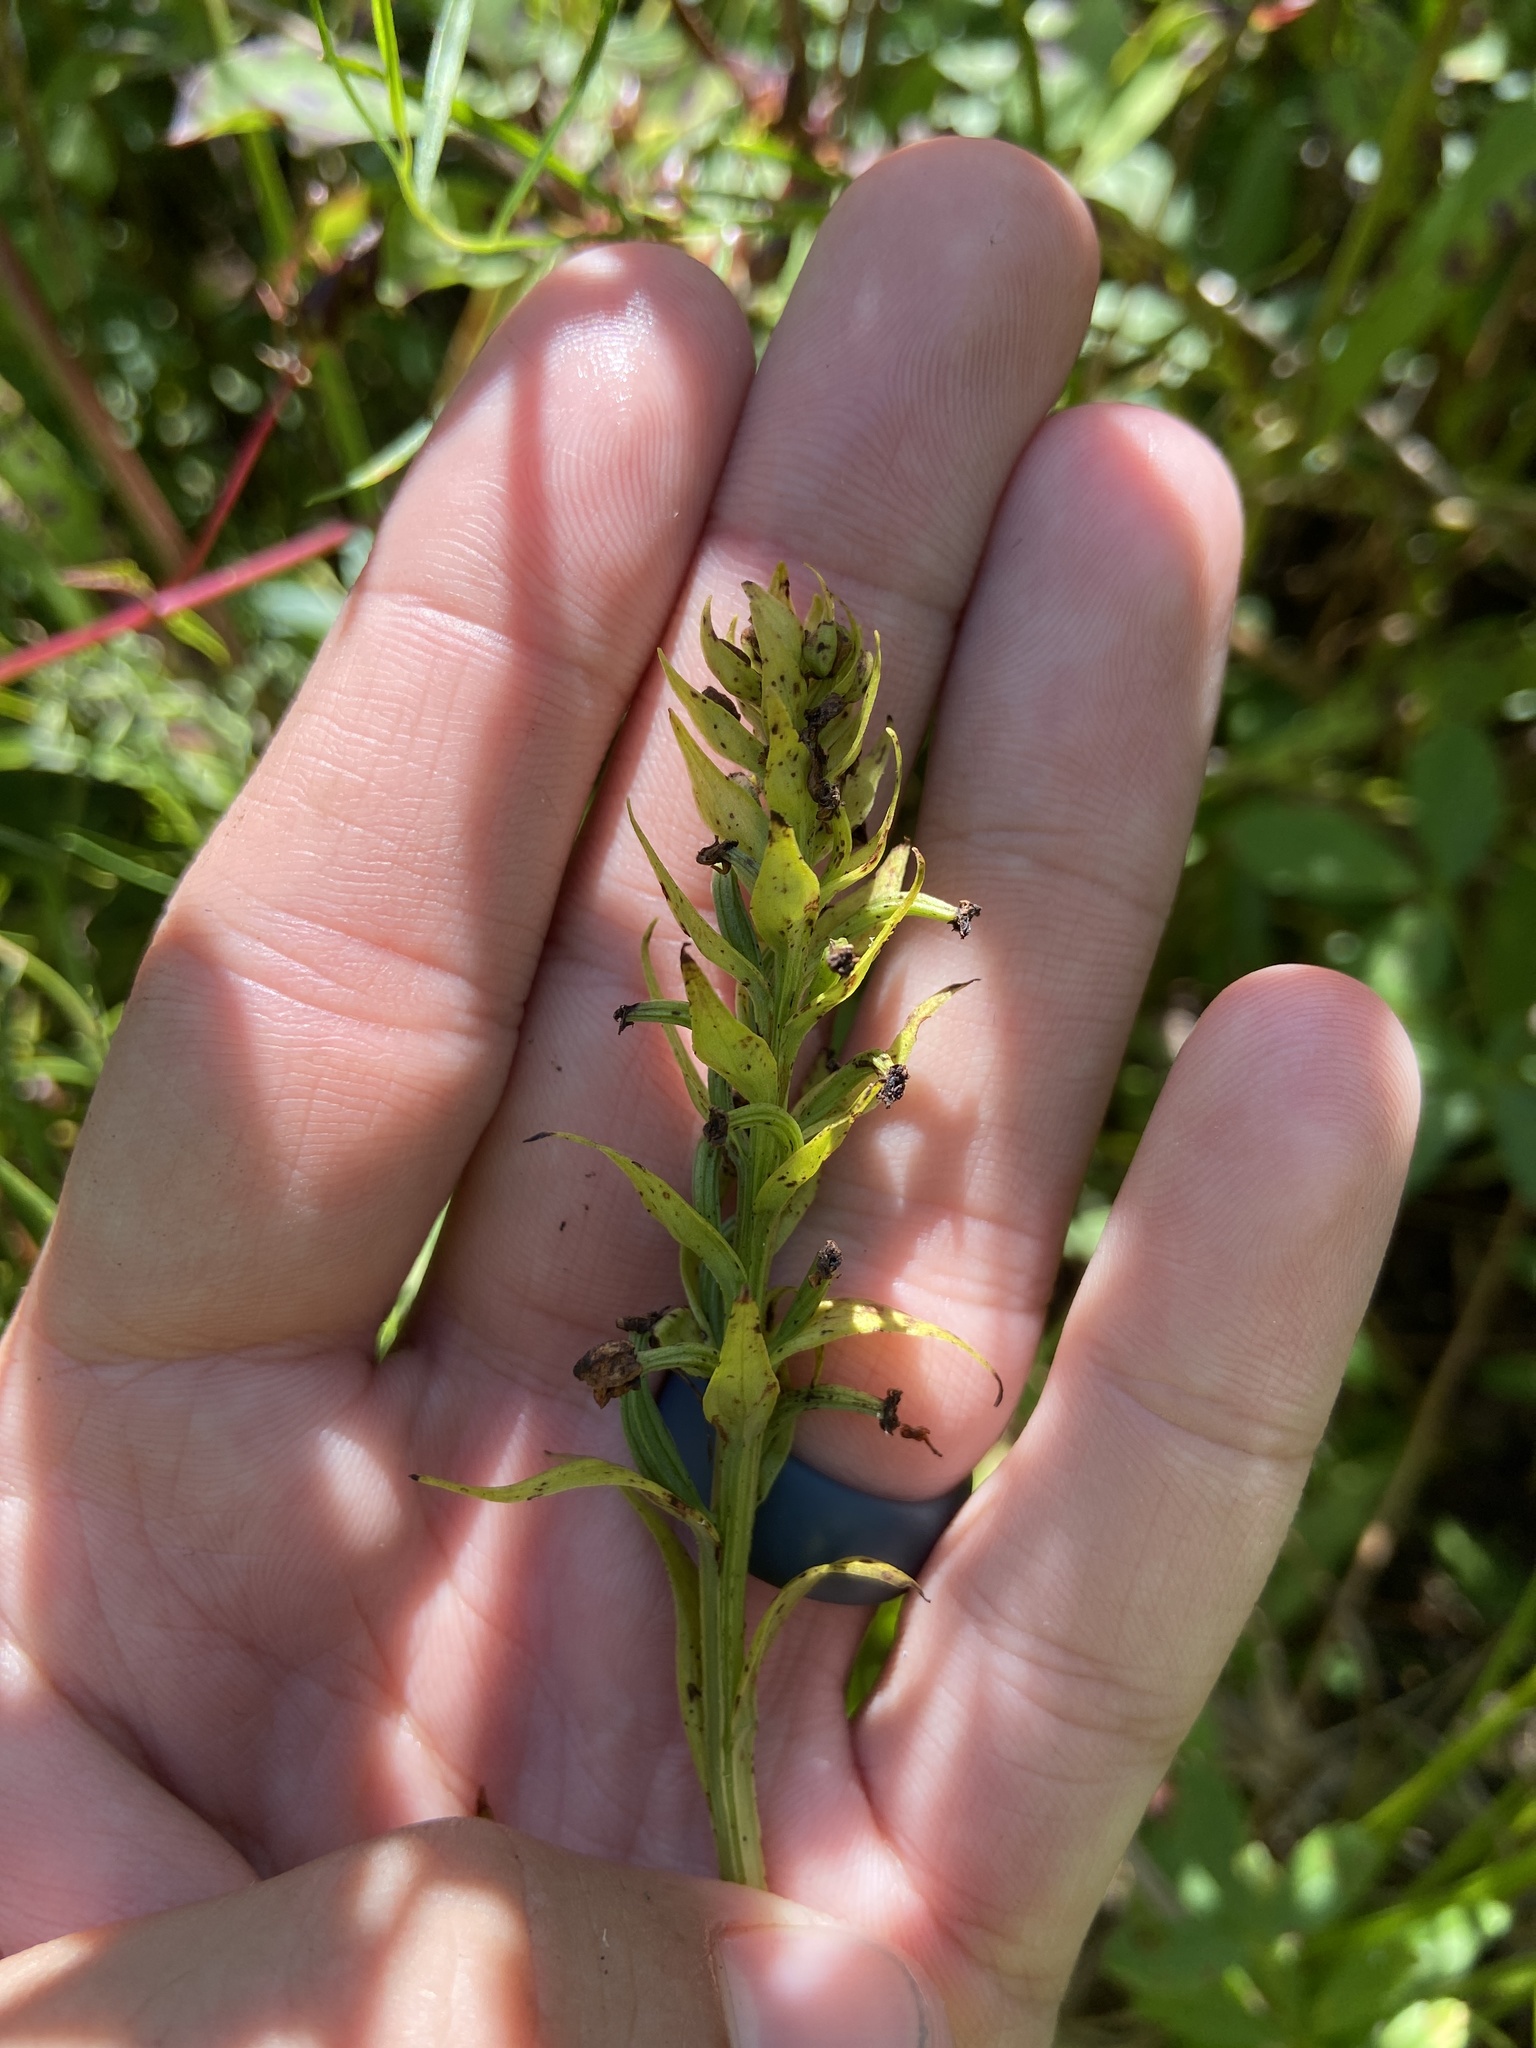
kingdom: Plantae
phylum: Tracheophyta
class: Liliopsida
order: Asparagales
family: Orchidaceae
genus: Platanthera
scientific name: Platanthera lacera
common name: Green fringed orchid
